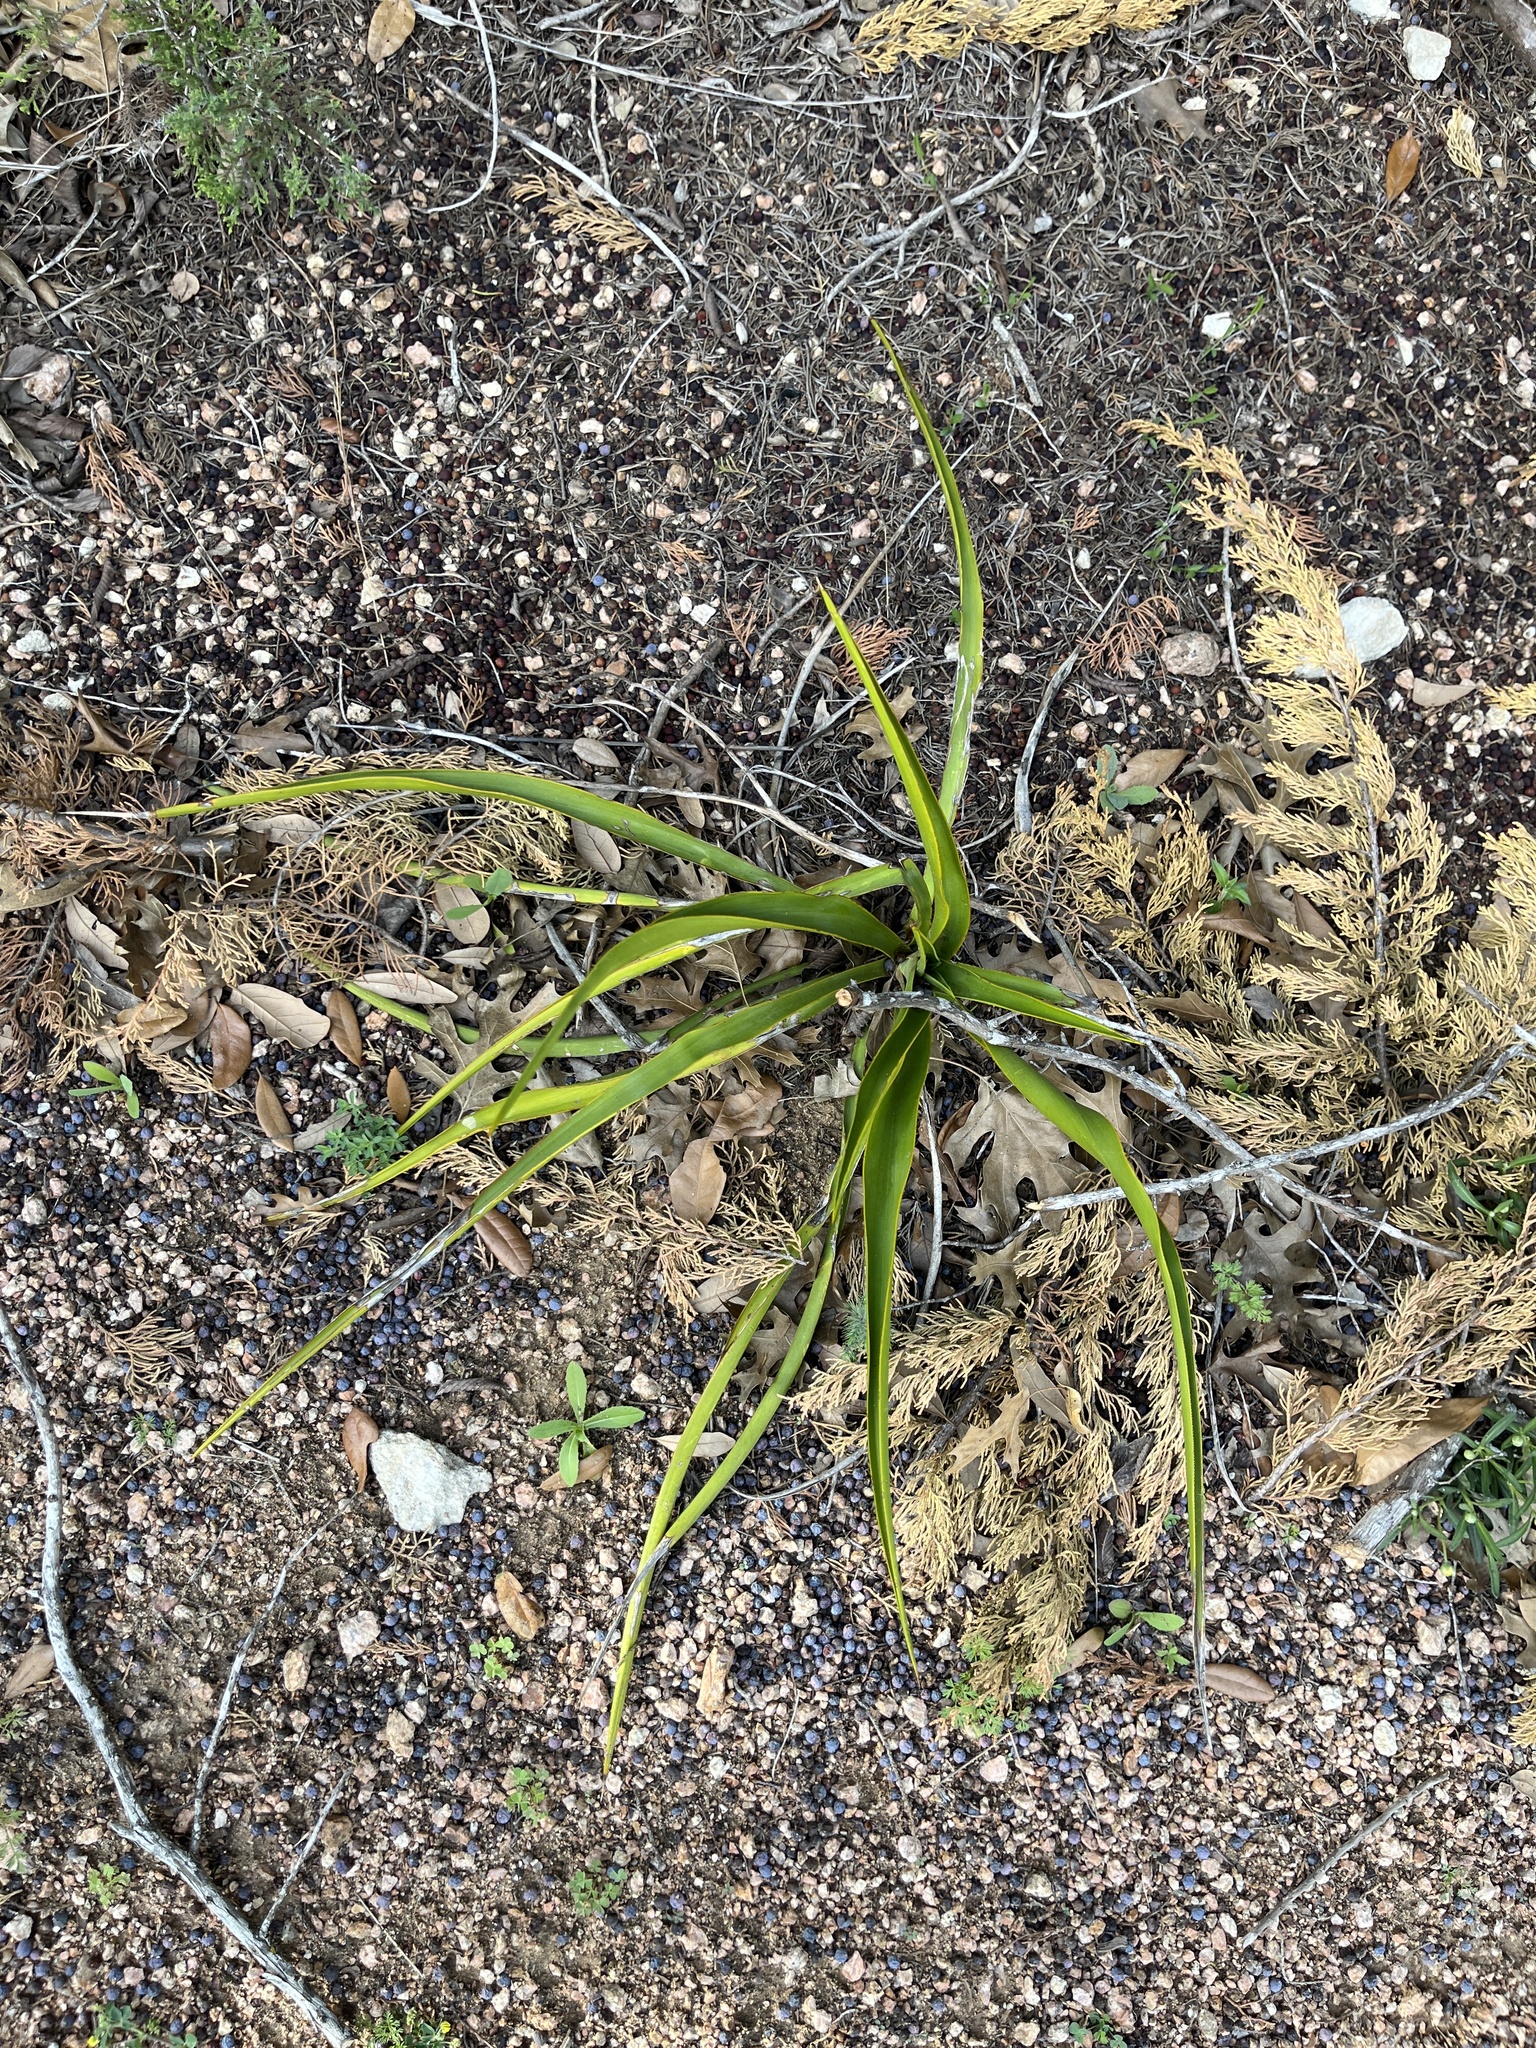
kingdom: Plantae
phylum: Tracheophyta
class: Liliopsida
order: Asparagales
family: Asparagaceae
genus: Yucca
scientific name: Yucca rupicola
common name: Twisted-leaf spanish-dagger
